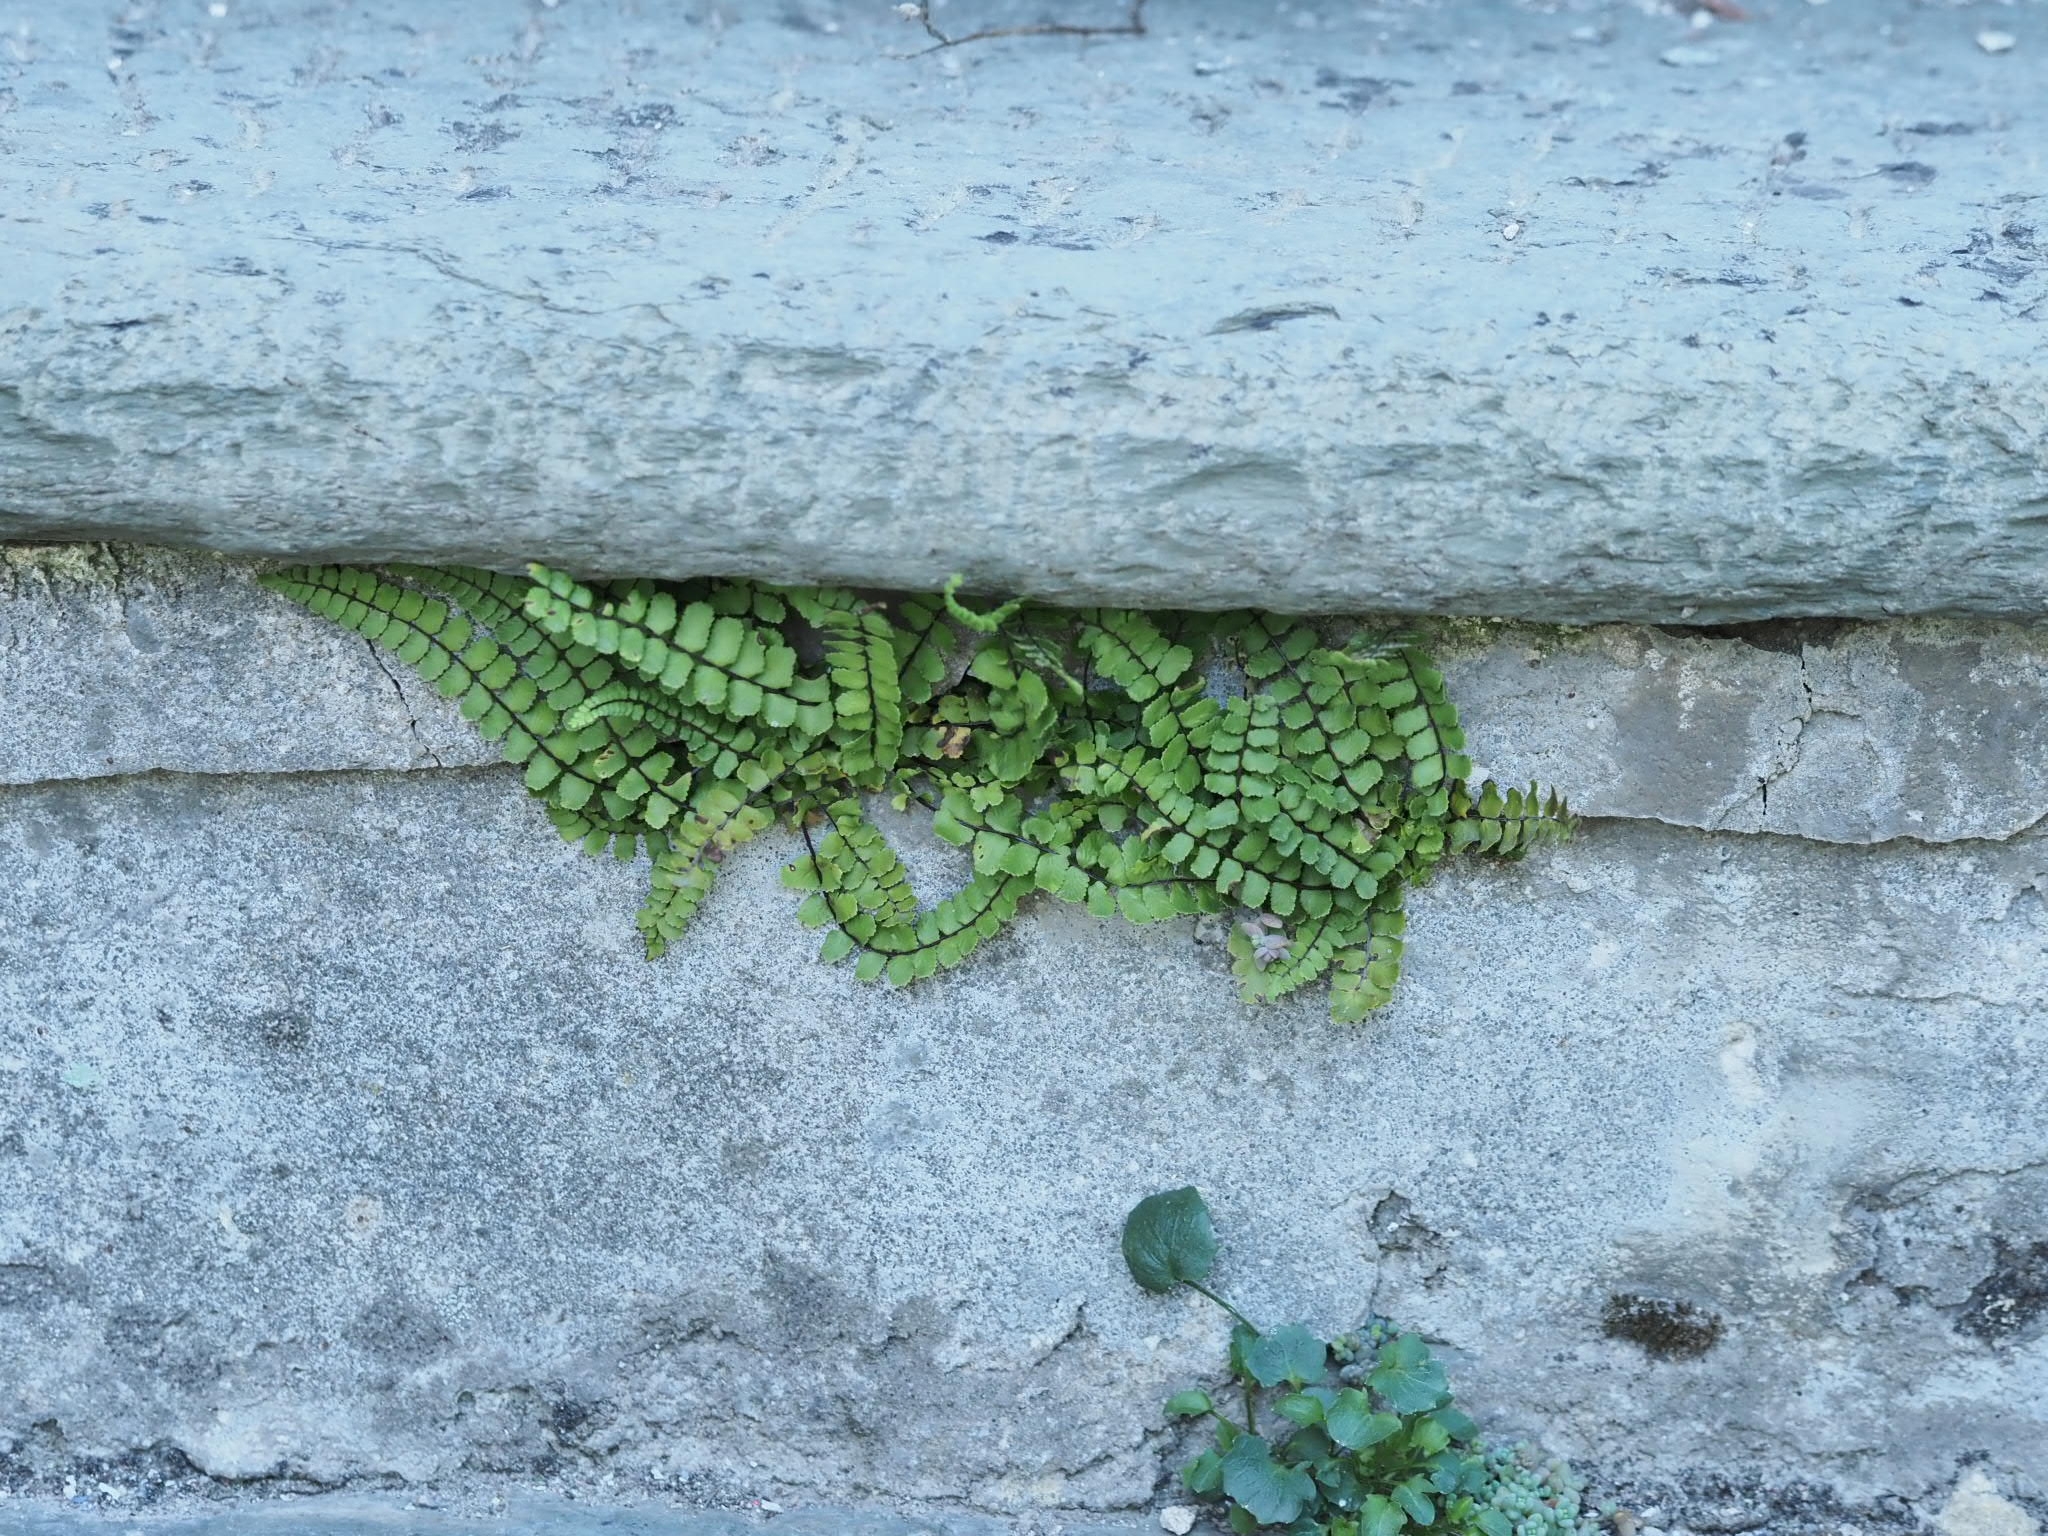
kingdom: Plantae
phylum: Tracheophyta
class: Polypodiopsida
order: Polypodiales
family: Aspleniaceae
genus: Asplenium
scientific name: Asplenium trichomanes
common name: Maidenhair spleenwort
